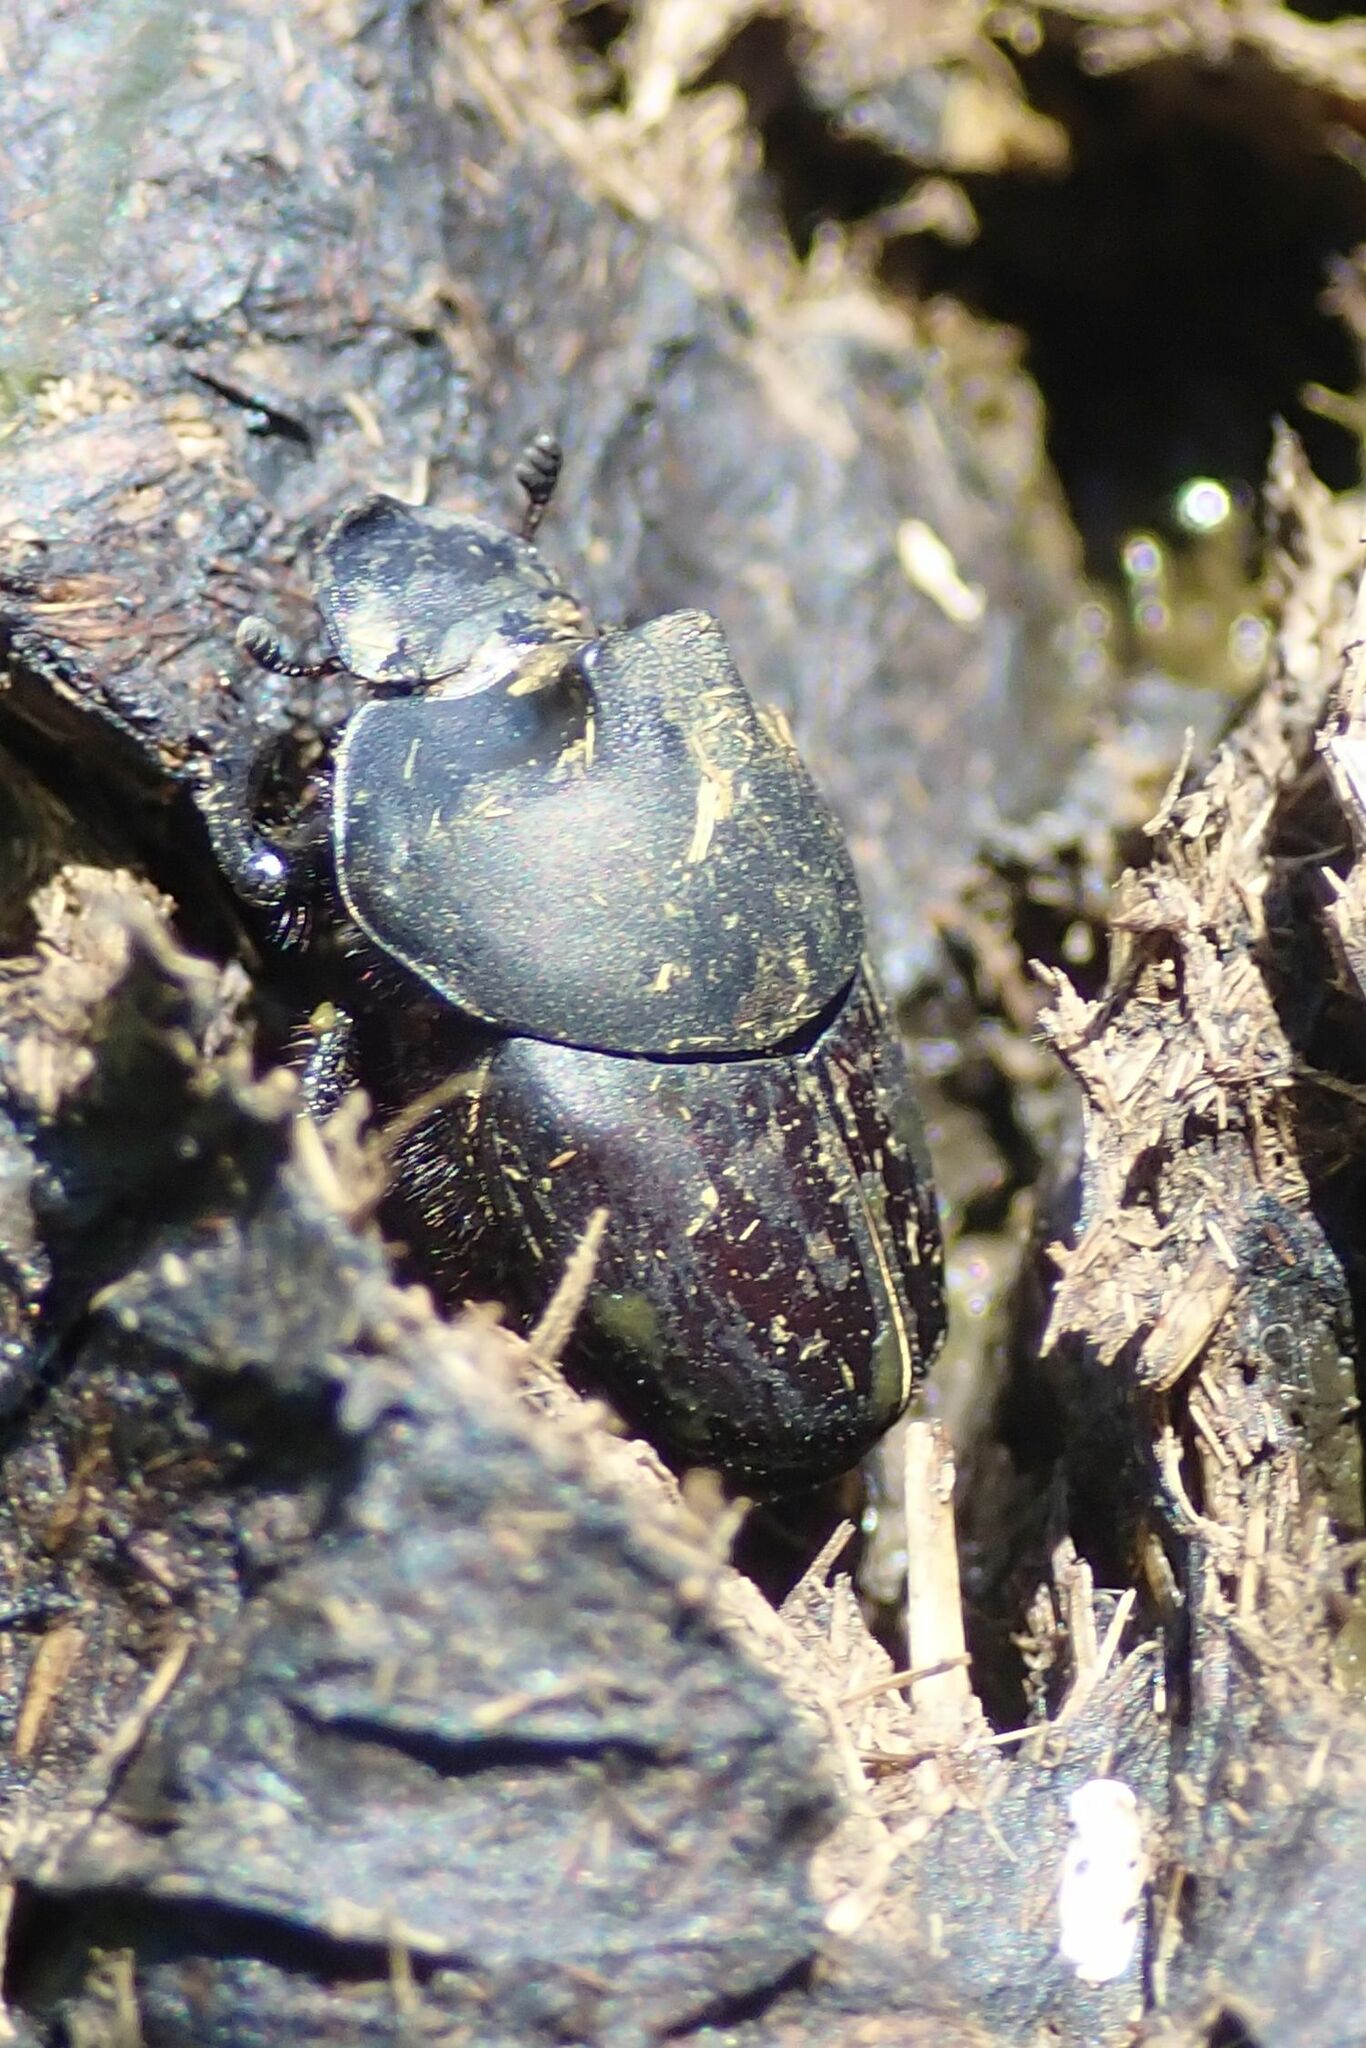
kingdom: Animalia
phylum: Arthropoda
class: Insecta
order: Coleoptera
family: Scarabaeidae
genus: Onthophagus
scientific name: Onthophagus binodis
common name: Humpbacked dung beetle
